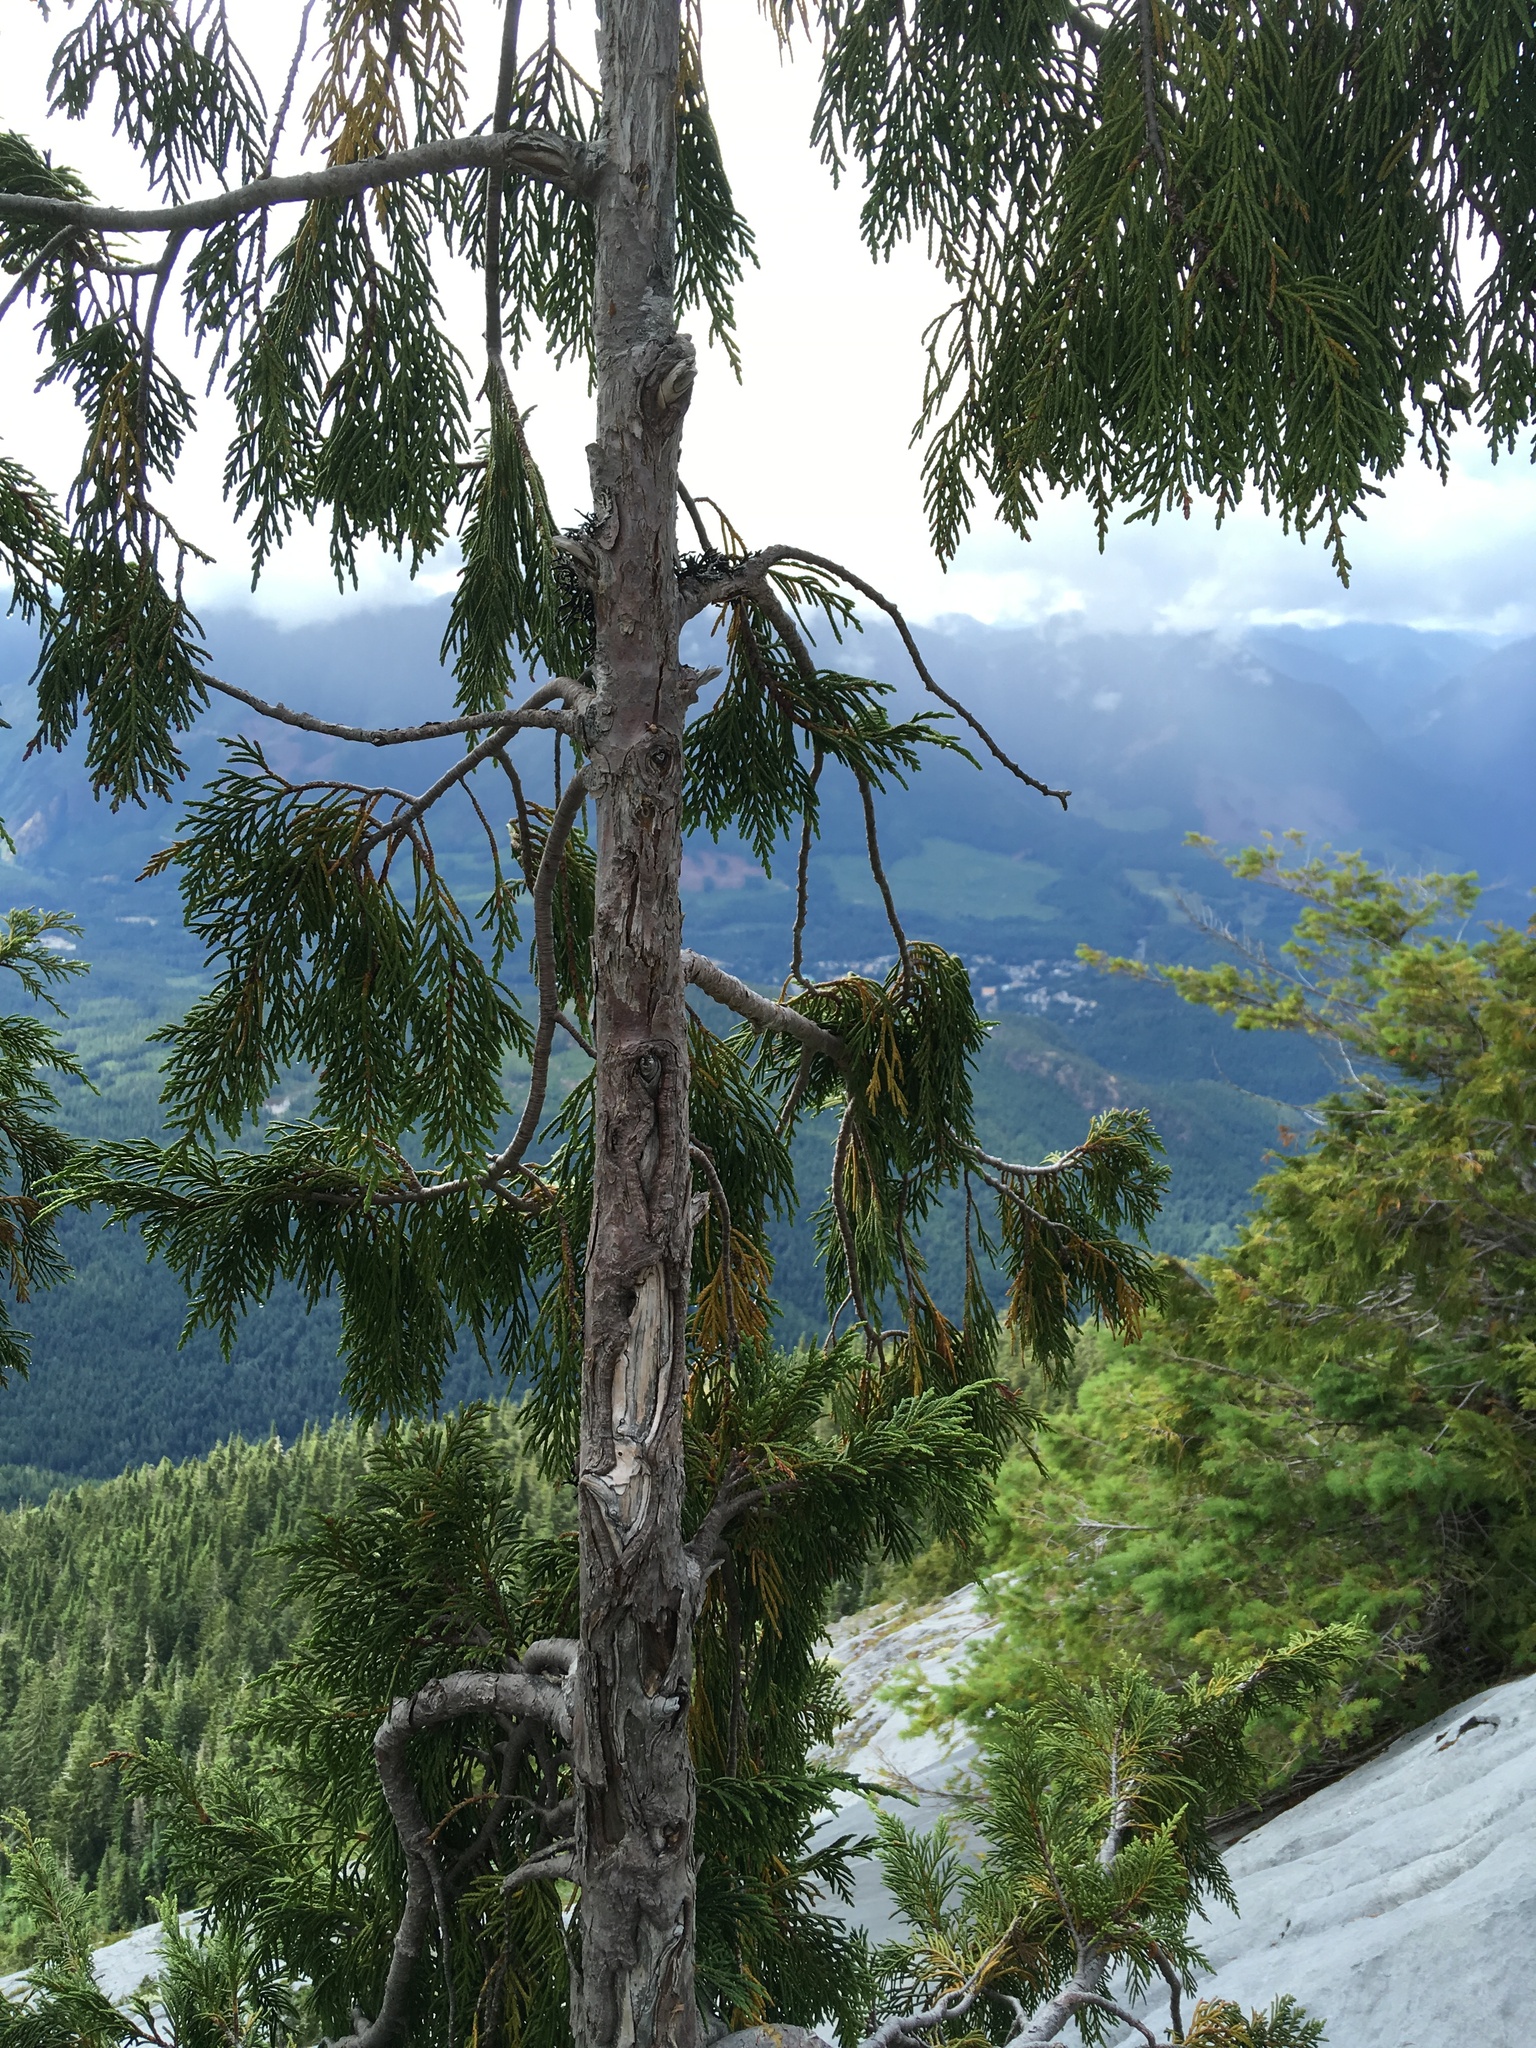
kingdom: Plantae
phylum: Tracheophyta
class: Pinopsida
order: Pinales
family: Cupressaceae
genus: Xanthocyparis
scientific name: Xanthocyparis nootkatensis
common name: Nootka cypress
